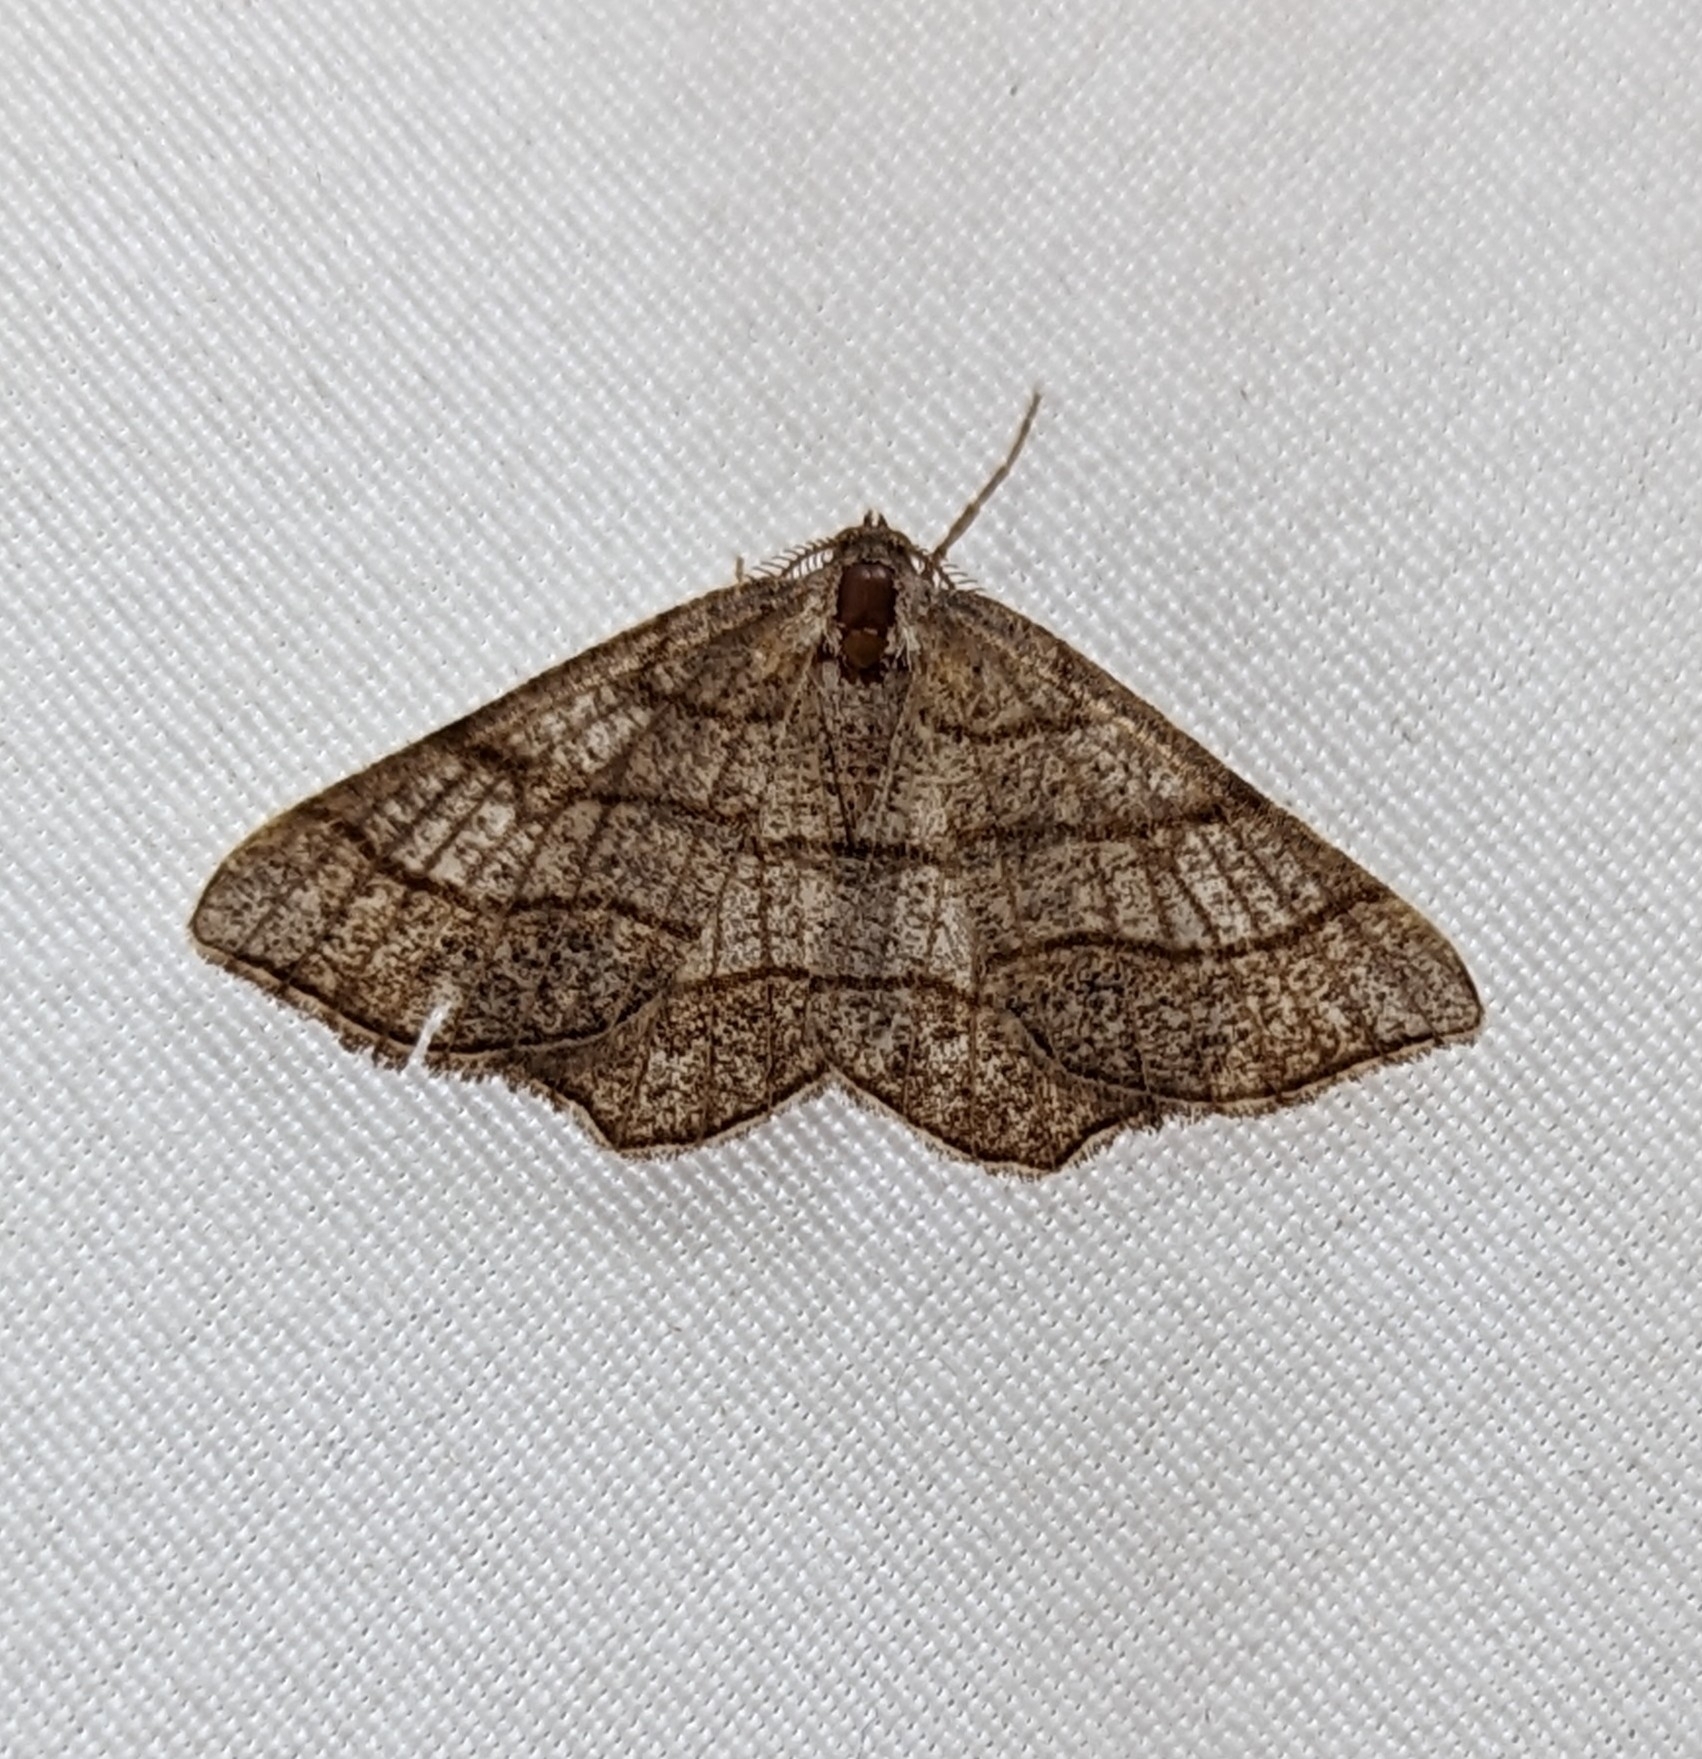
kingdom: Animalia
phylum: Arthropoda
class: Insecta
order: Lepidoptera
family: Geometridae
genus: Eumacaria
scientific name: Eumacaria madopata
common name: Brown-bordered geometer
